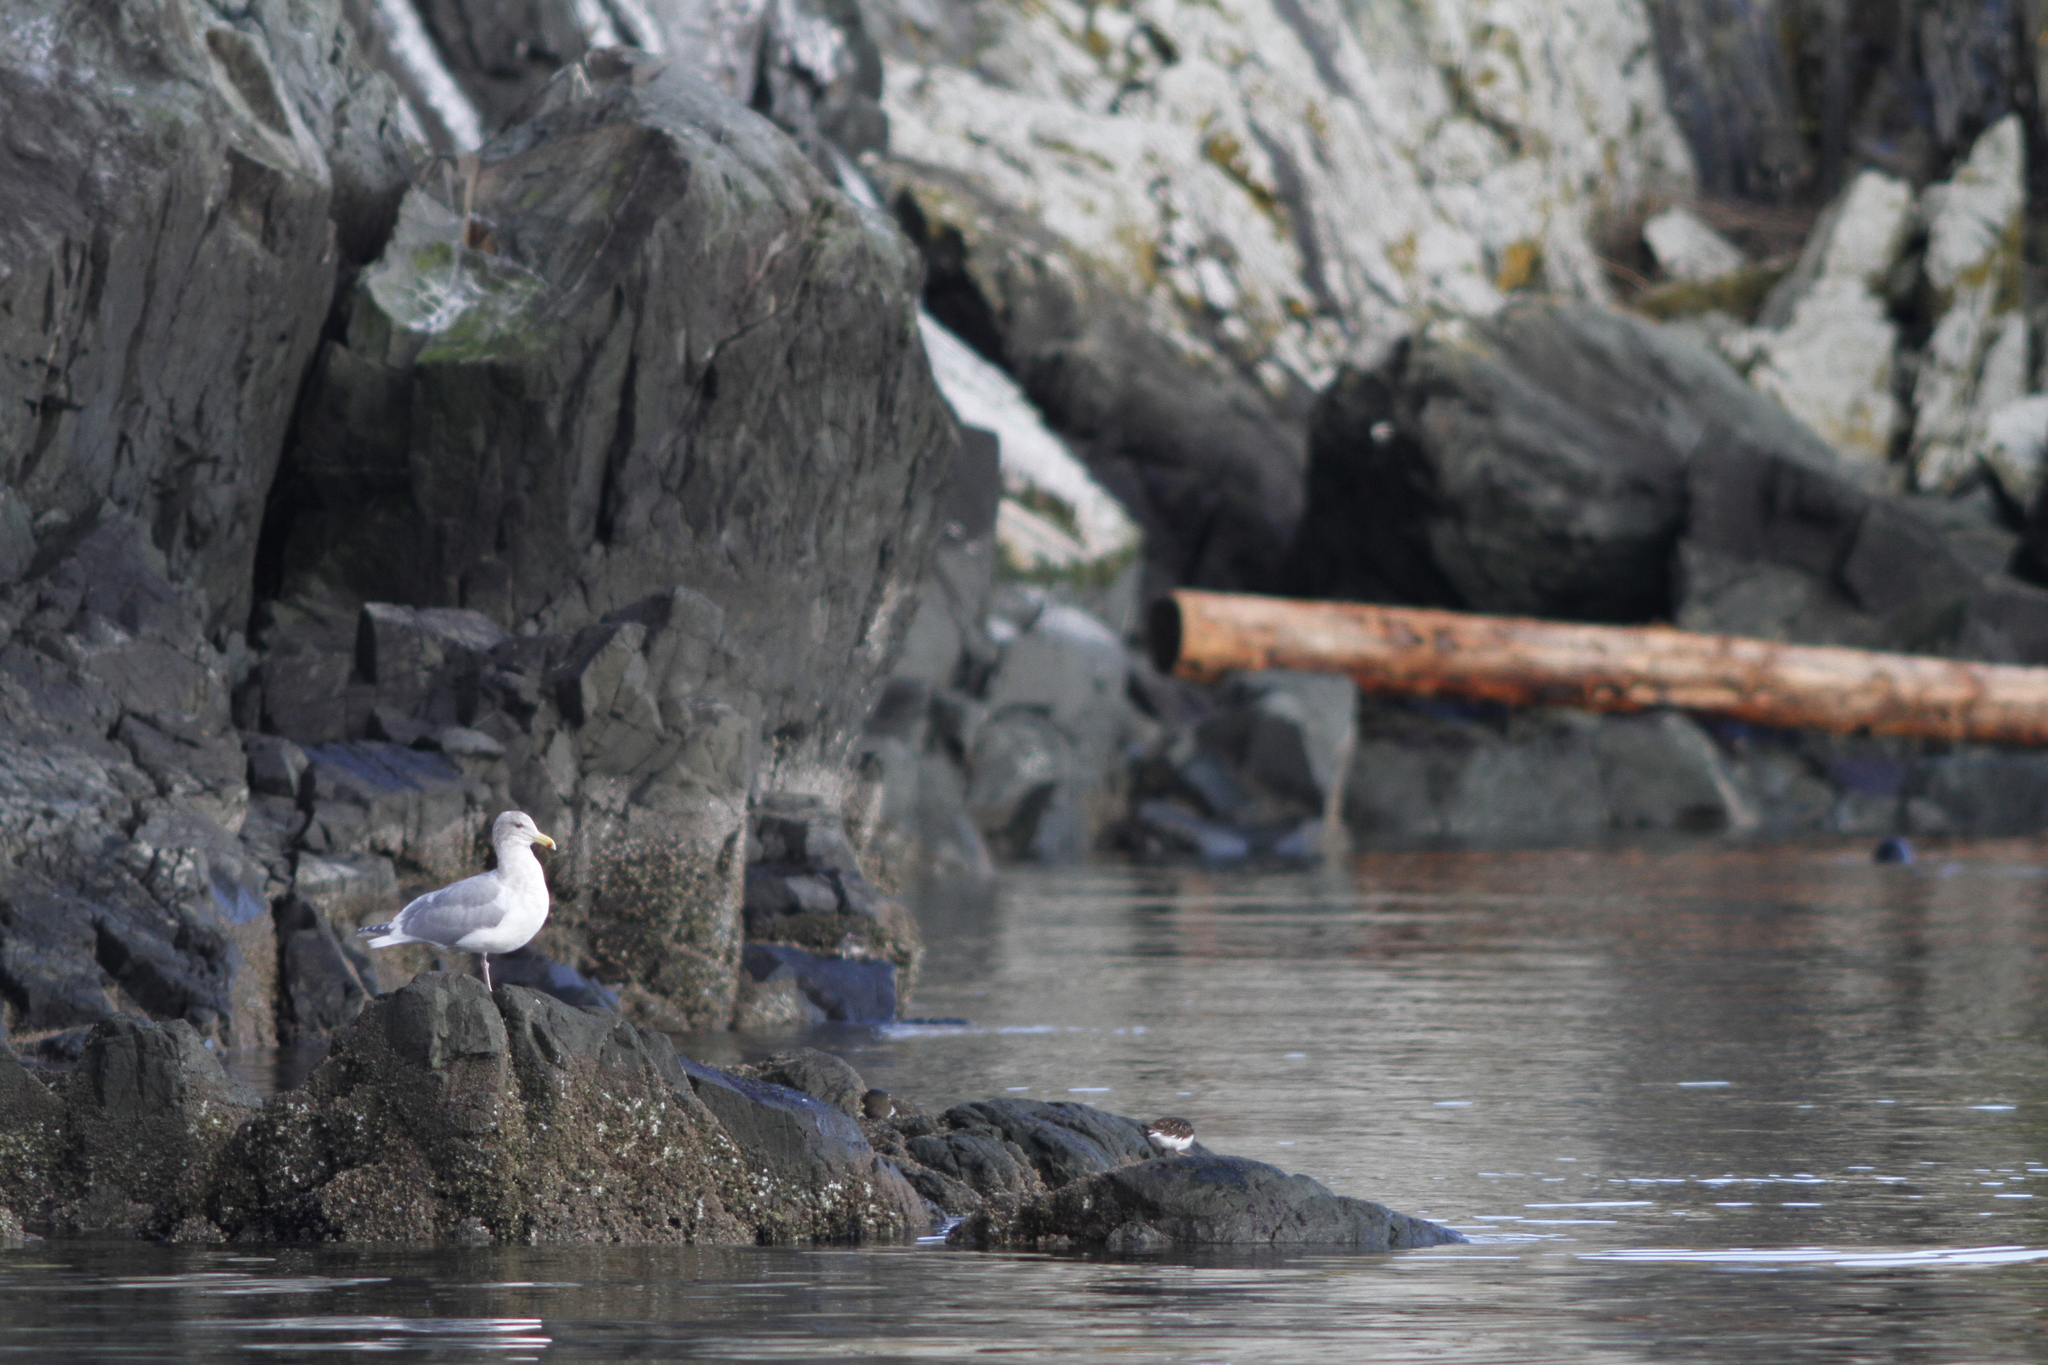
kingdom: Animalia
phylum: Chordata
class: Aves
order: Charadriiformes
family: Laridae
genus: Larus
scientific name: Larus glaucescens
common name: Glaucous-winged gull
